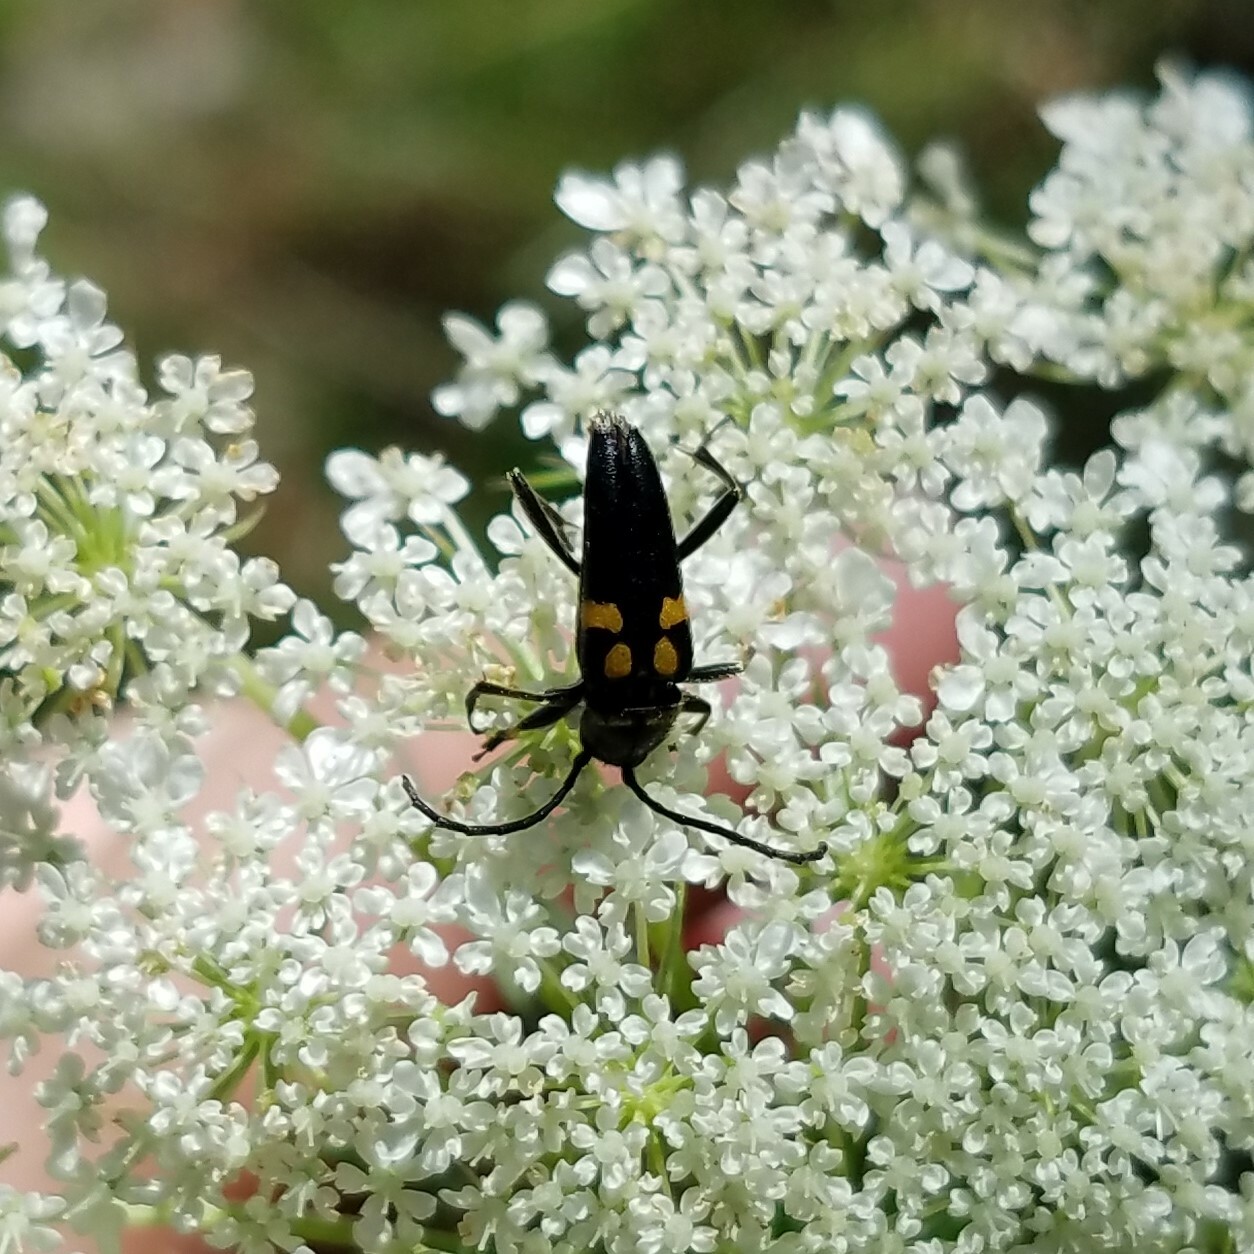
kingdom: Animalia
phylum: Arthropoda
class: Insecta
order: Coleoptera
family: Cerambycidae
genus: Typocerus
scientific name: Typocerus lunulatus
